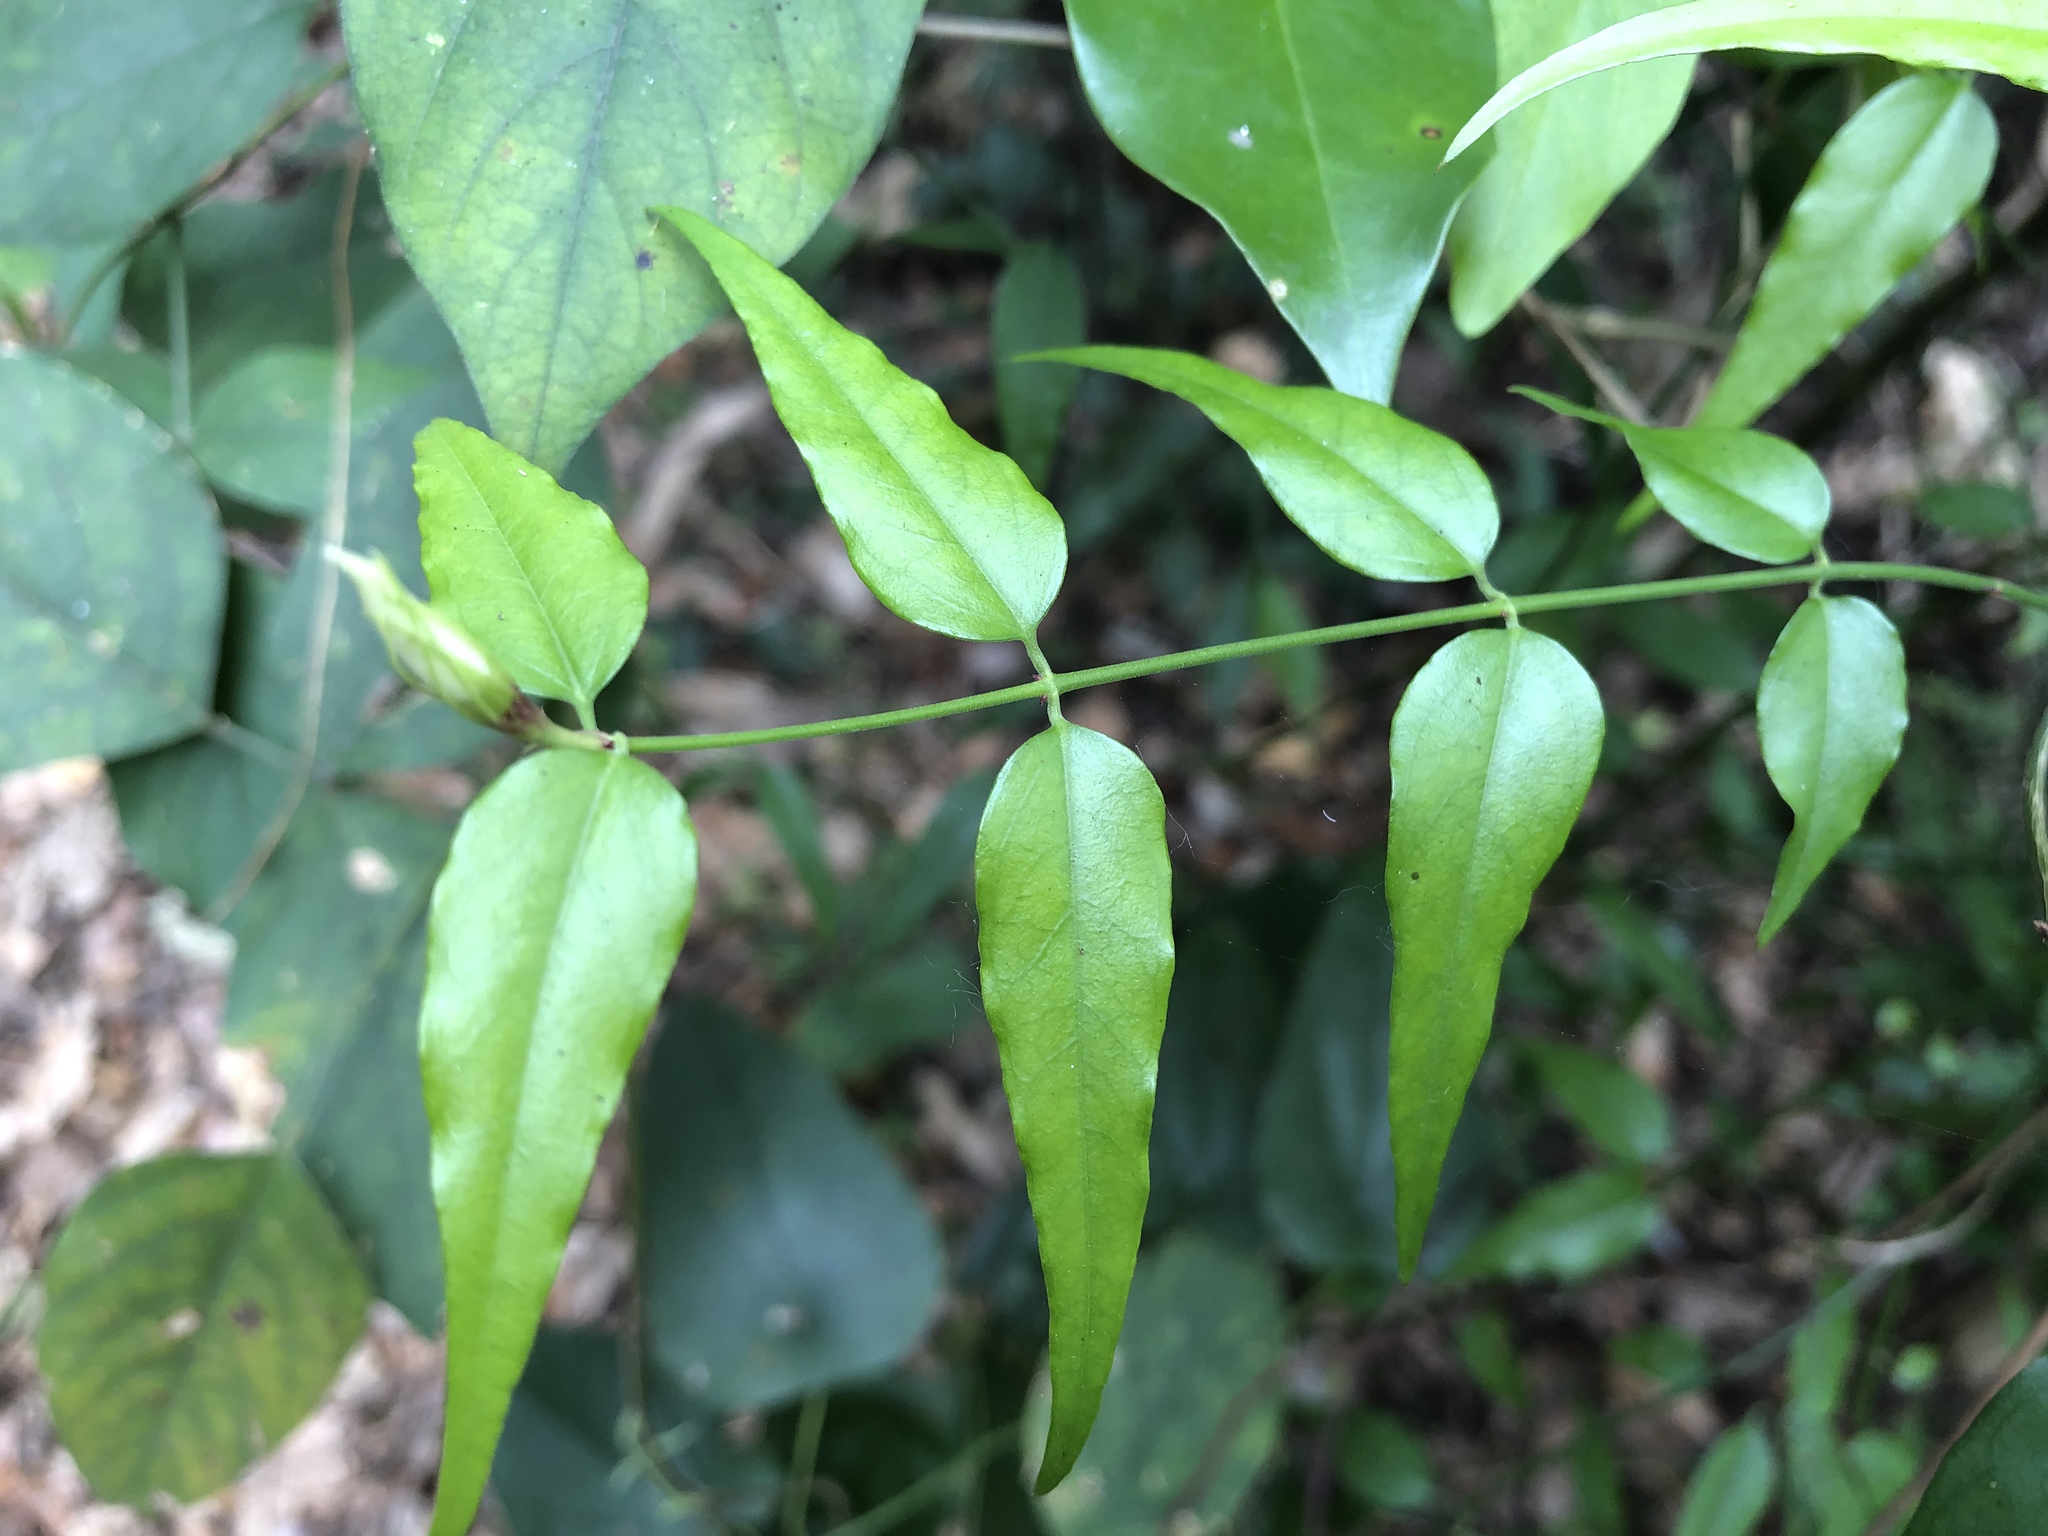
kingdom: Plantae
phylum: Tracheophyta
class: Magnoliopsida
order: Lamiales
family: Oleaceae
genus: Jasminum
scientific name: Jasminum nervosum
